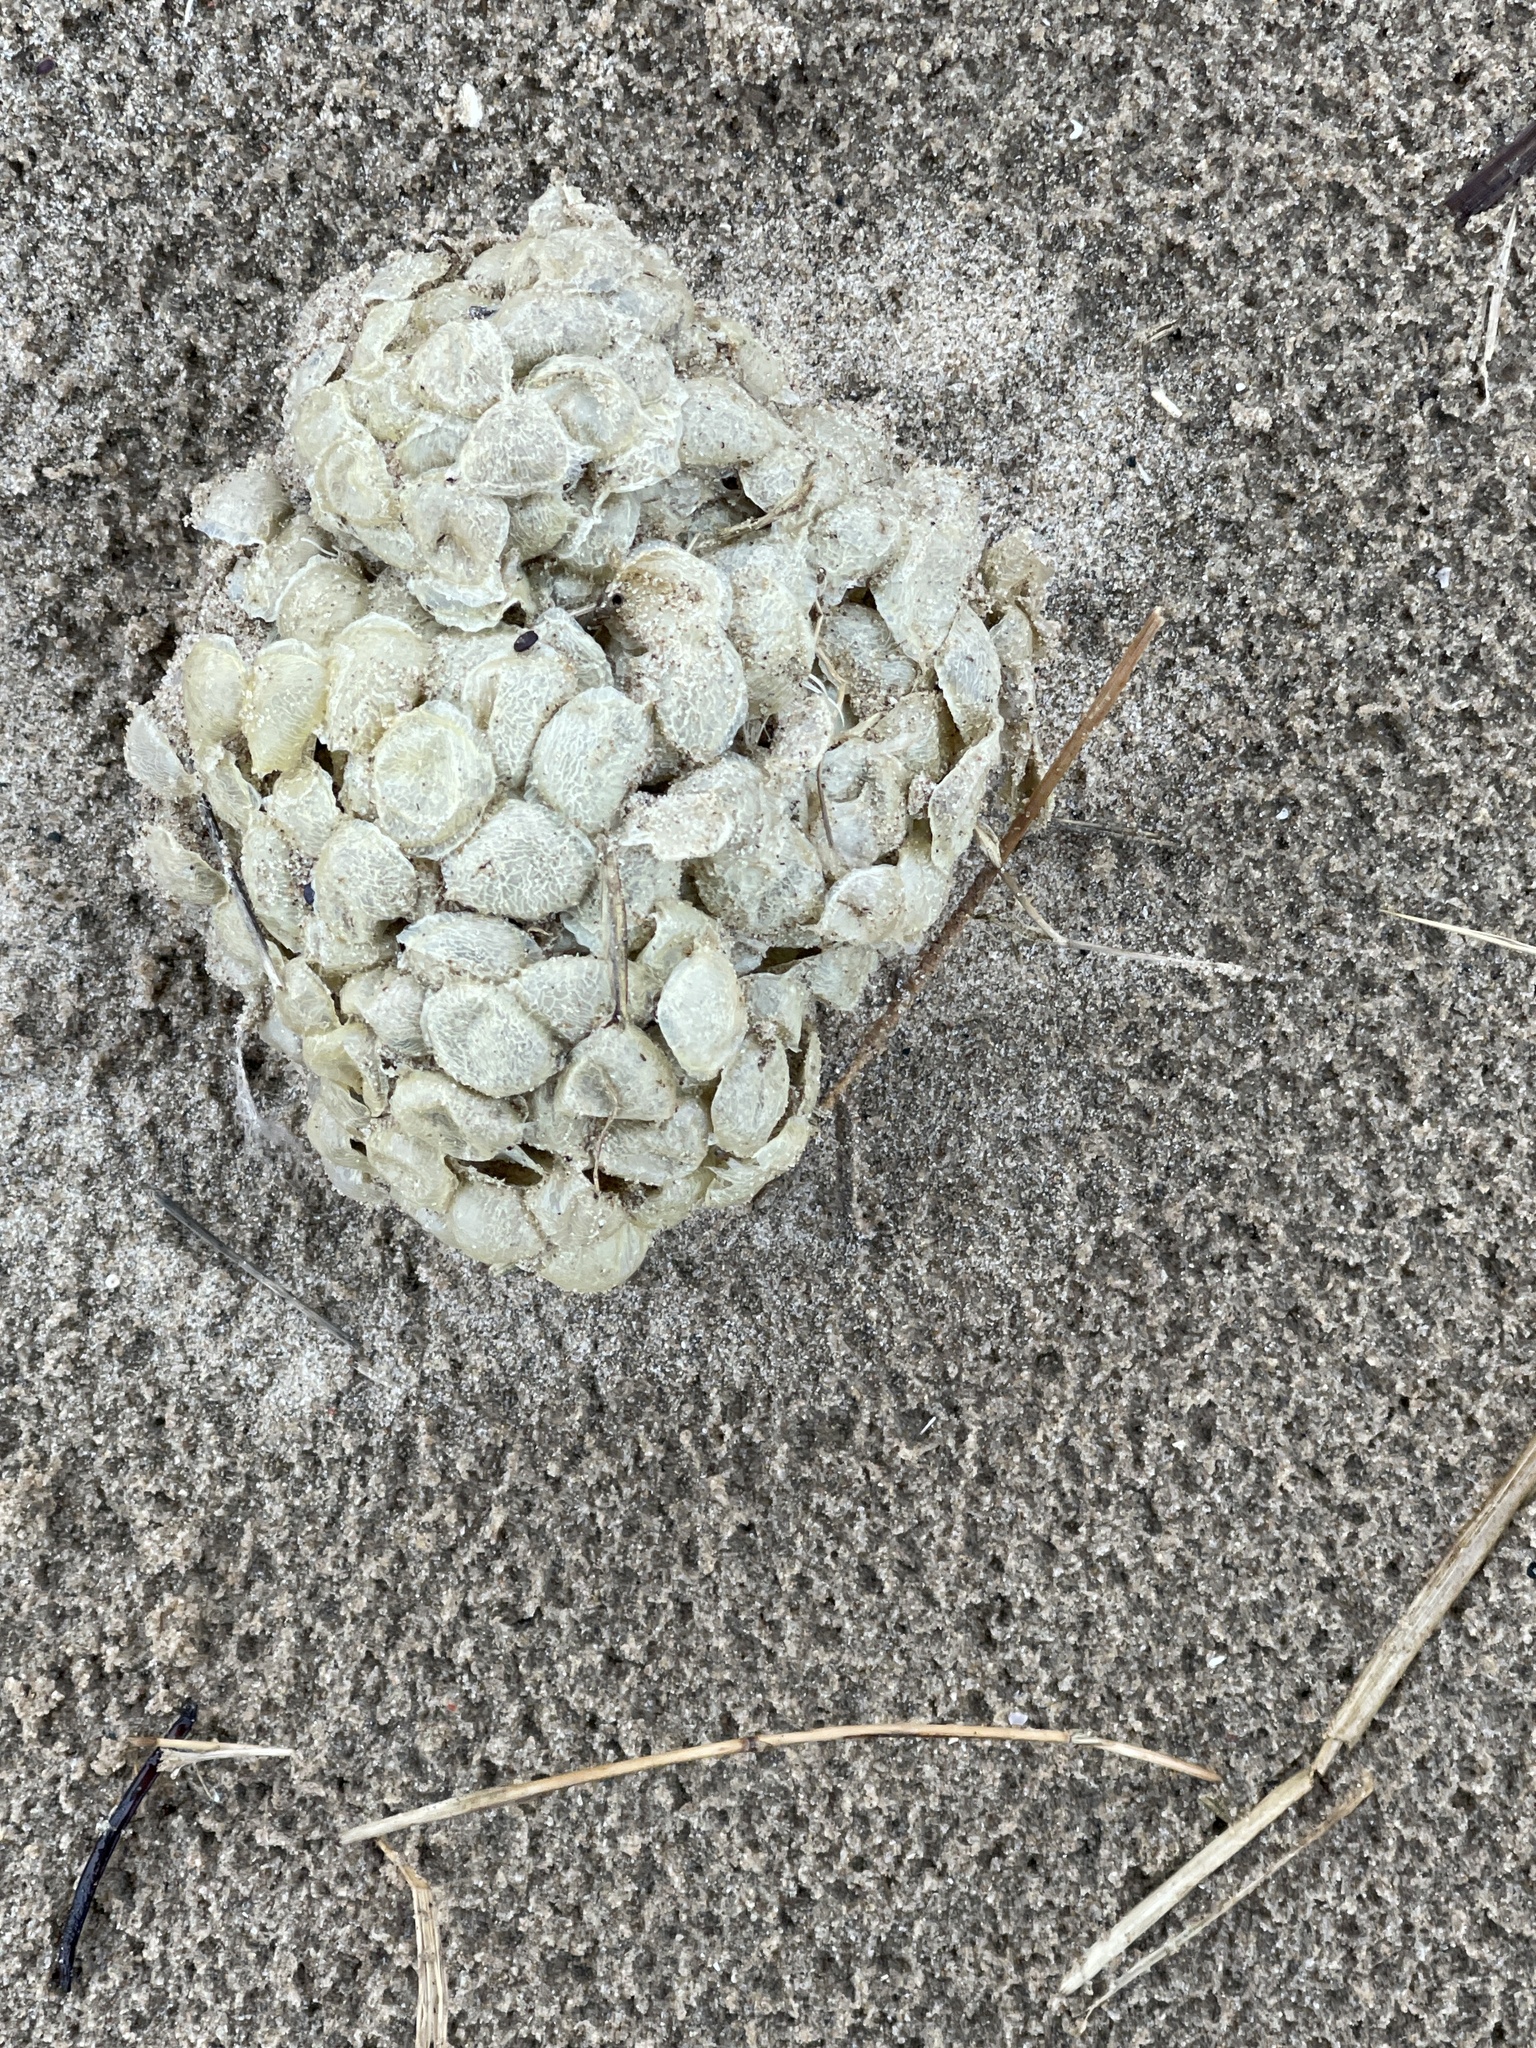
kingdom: Animalia
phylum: Mollusca
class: Gastropoda
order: Neogastropoda
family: Buccinidae
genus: Buccinum
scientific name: Buccinum undatum
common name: Common whelk
